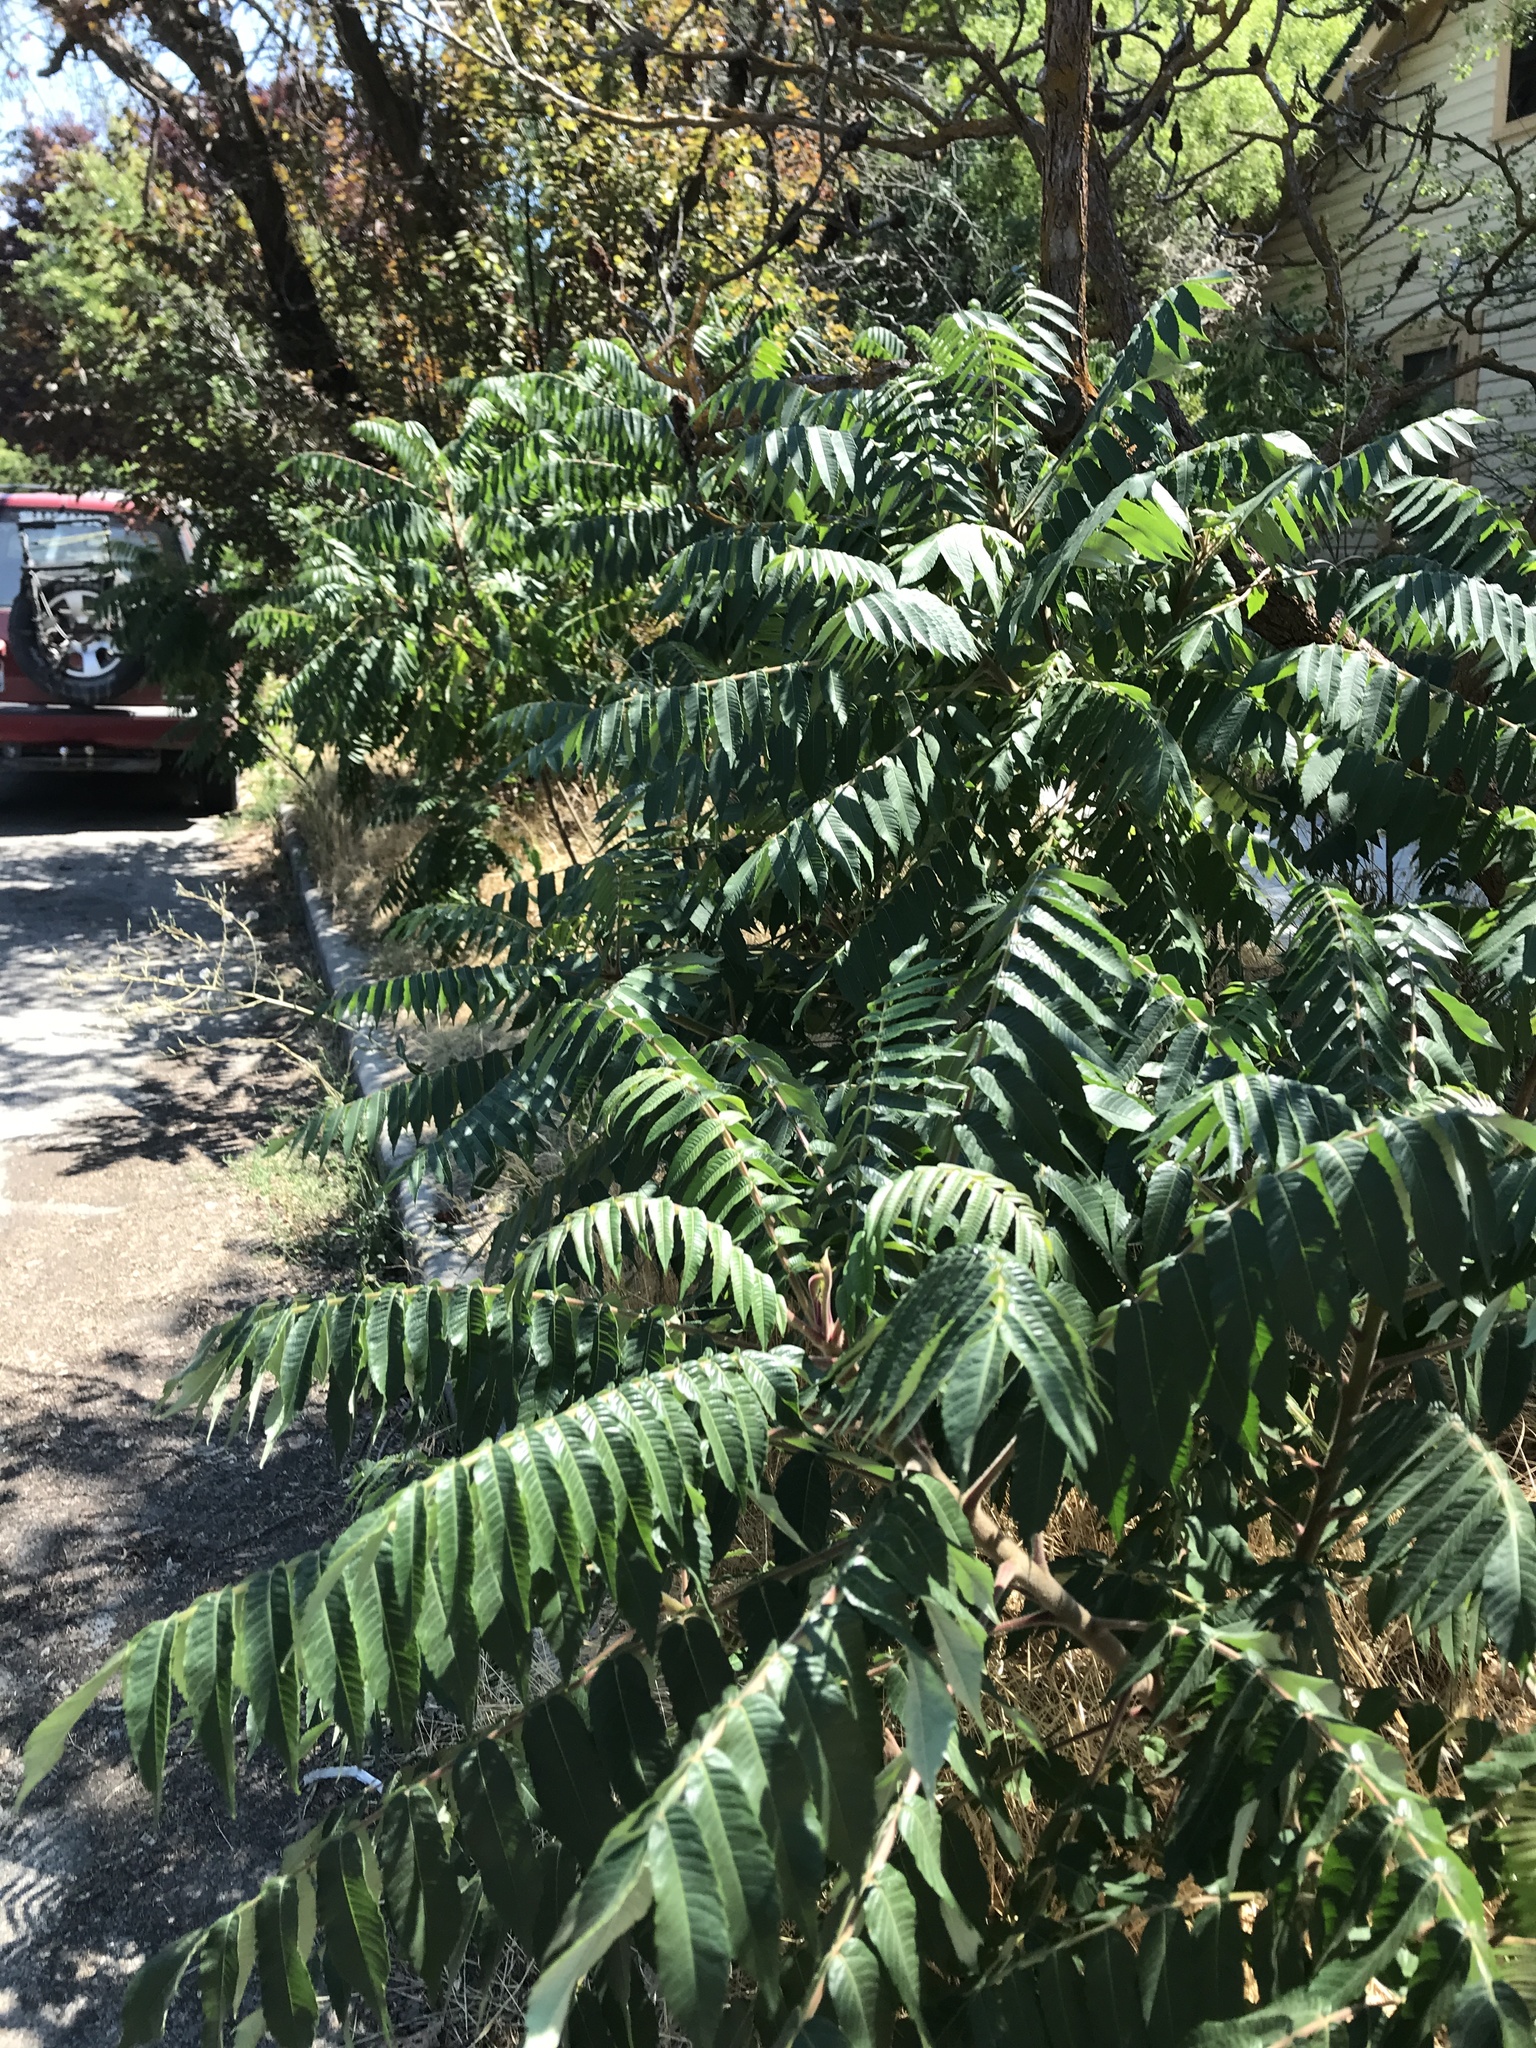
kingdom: Plantae
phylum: Tracheophyta
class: Magnoliopsida
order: Sapindales
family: Anacardiaceae
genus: Rhus
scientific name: Rhus typhina
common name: Staghorn sumac
